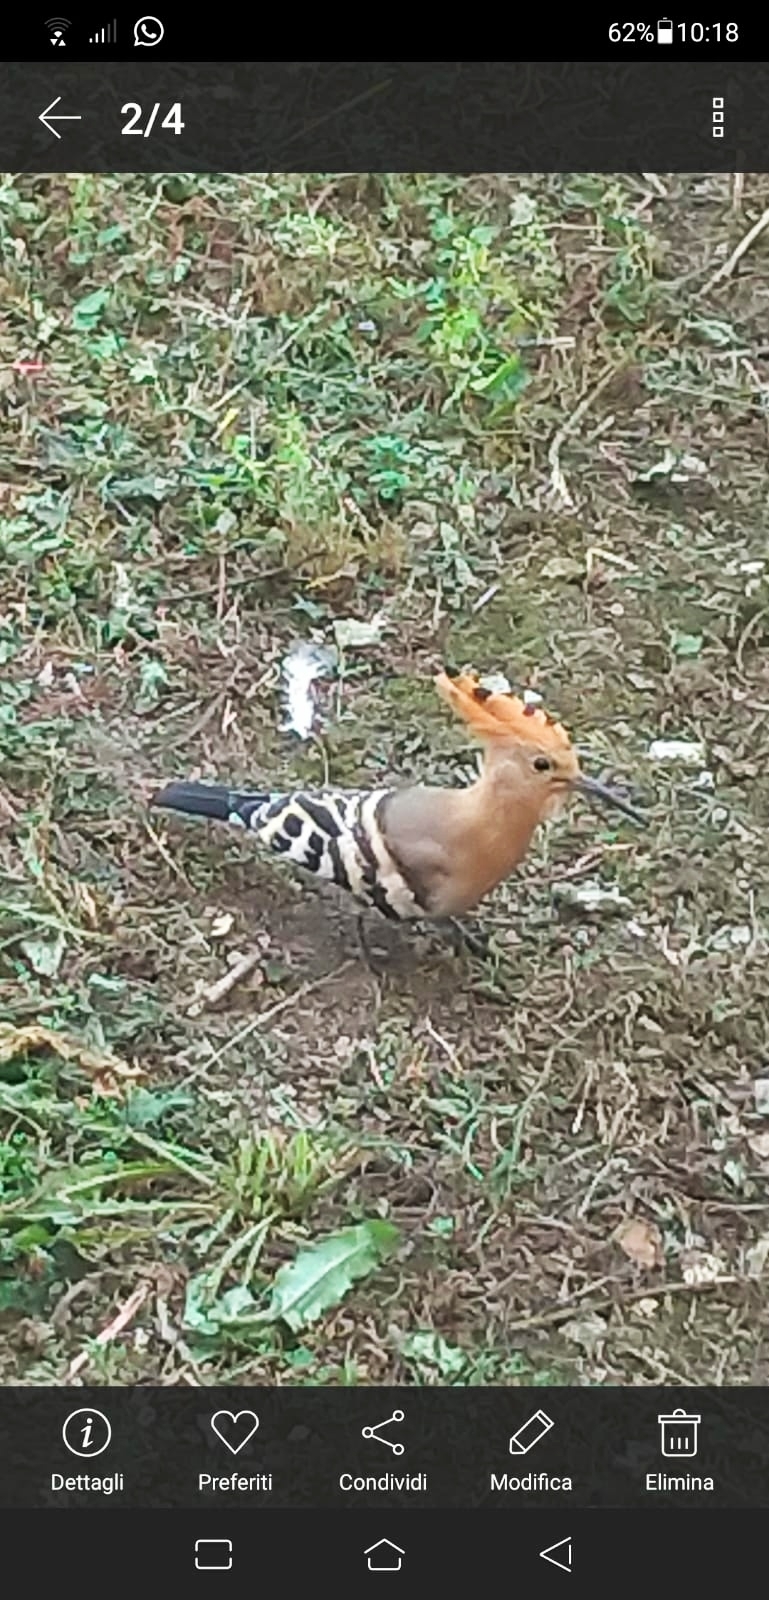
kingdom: Animalia
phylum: Chordata
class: Aves
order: Bucerotiformes
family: Upupidae
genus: Upupa
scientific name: Upupa epops
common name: Eurasian hoopoe
